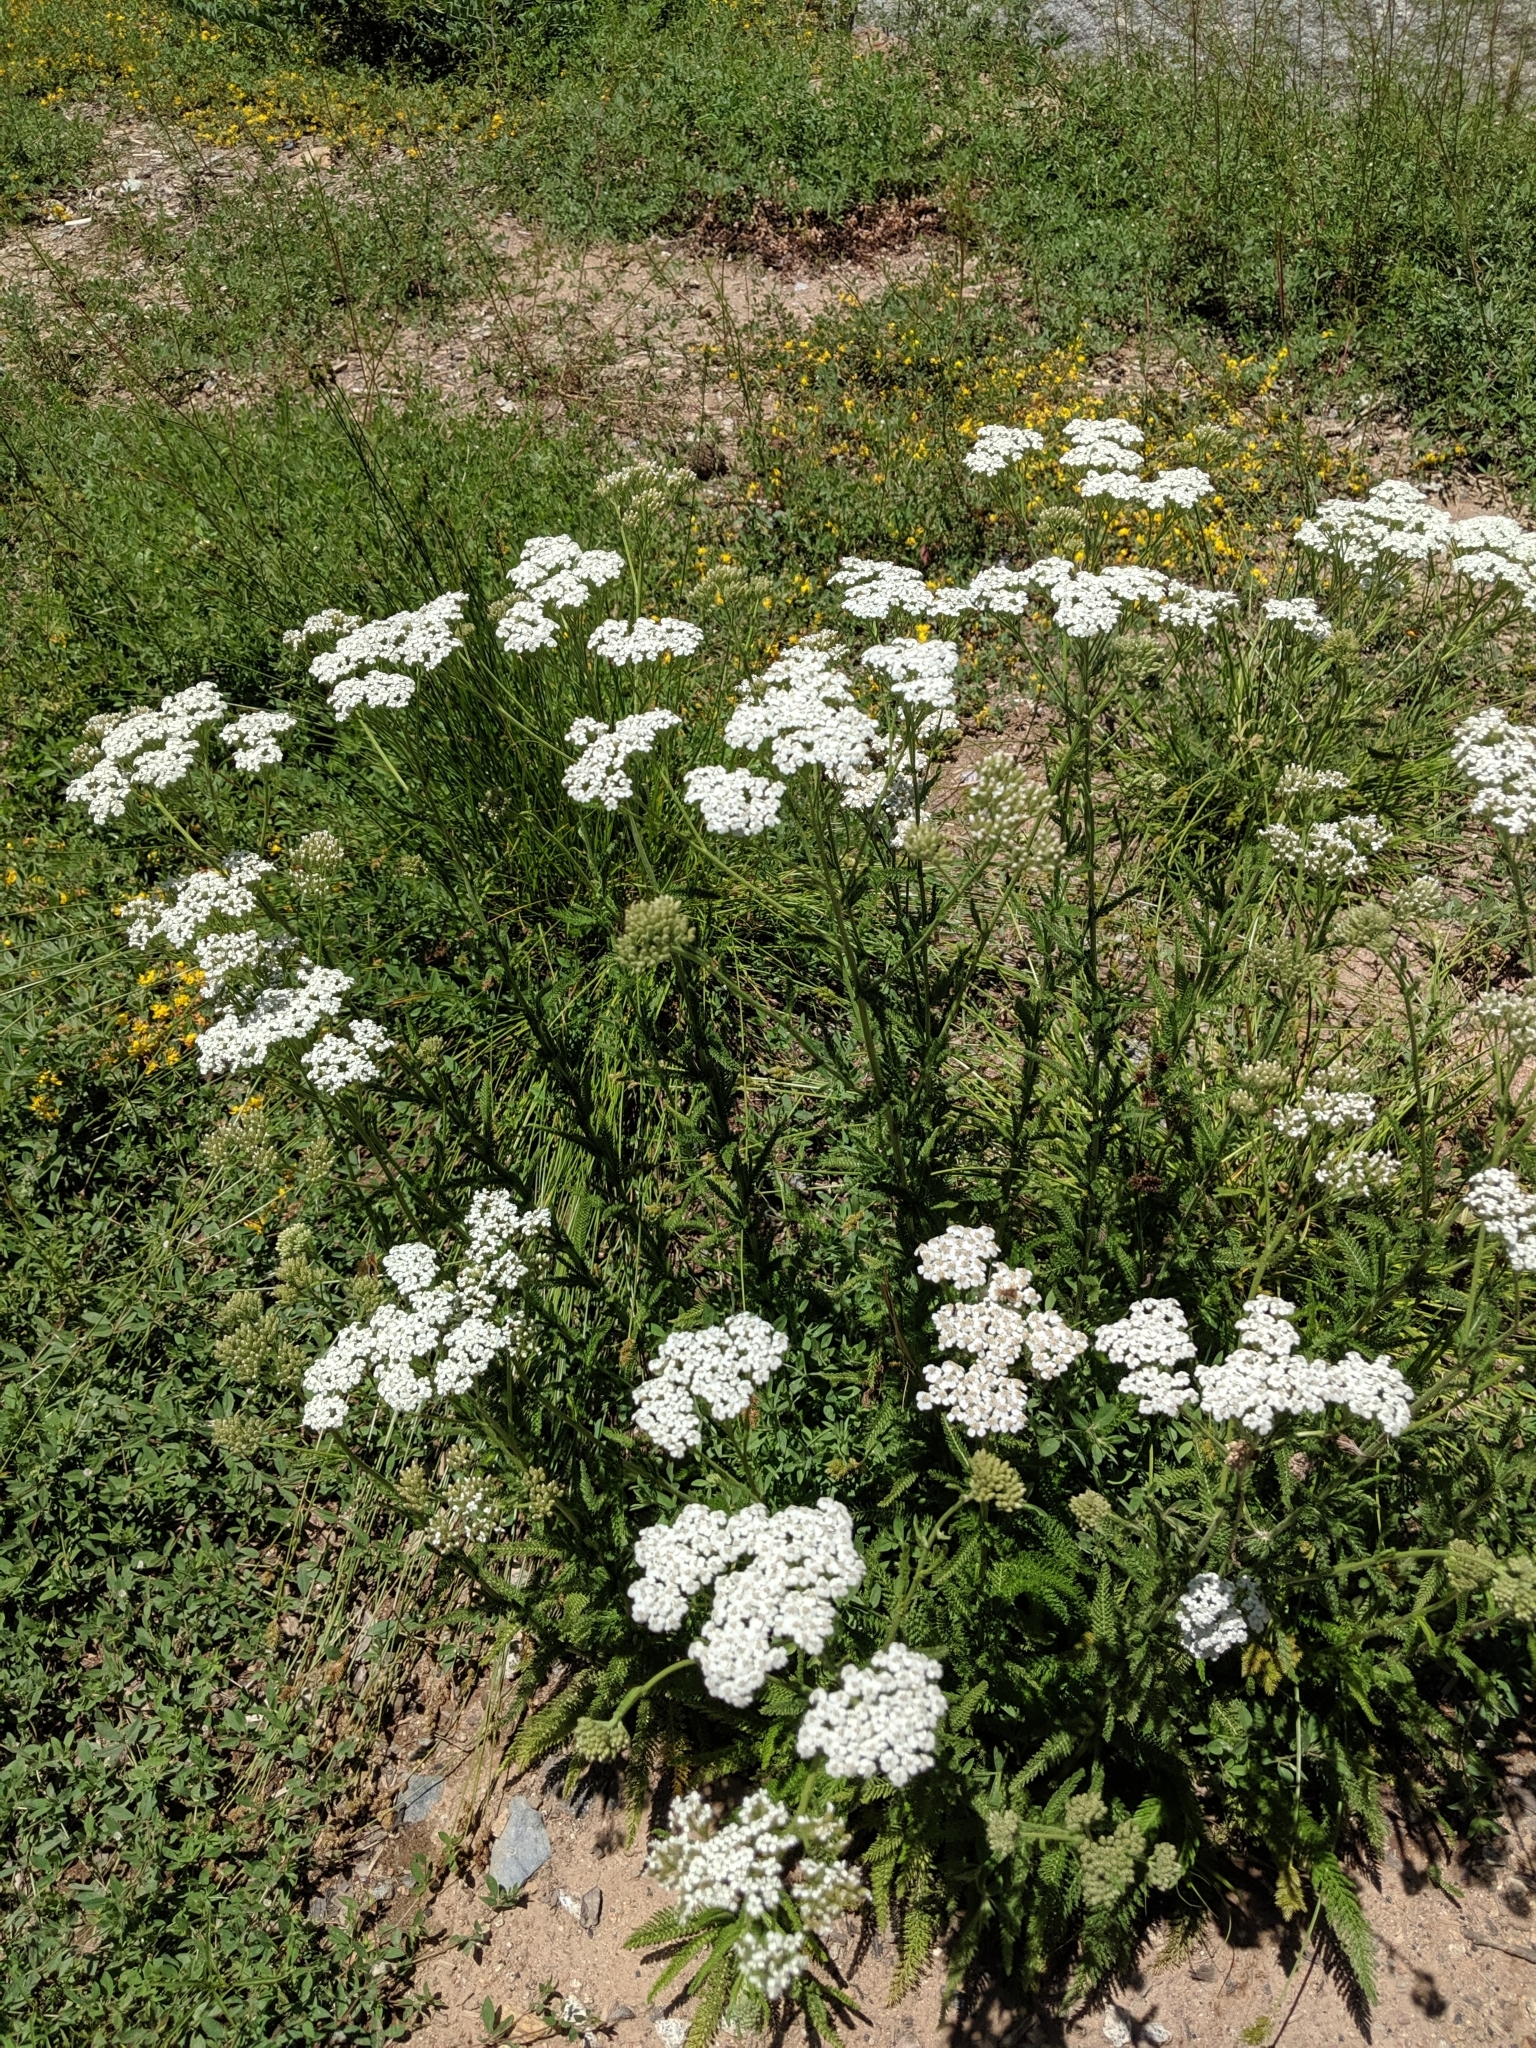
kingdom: Plantae
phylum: Tracheophyta
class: Magnoliopsida
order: Asterales
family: Asteraceae
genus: Achillea
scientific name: Achillea millefolium
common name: Yarrow
